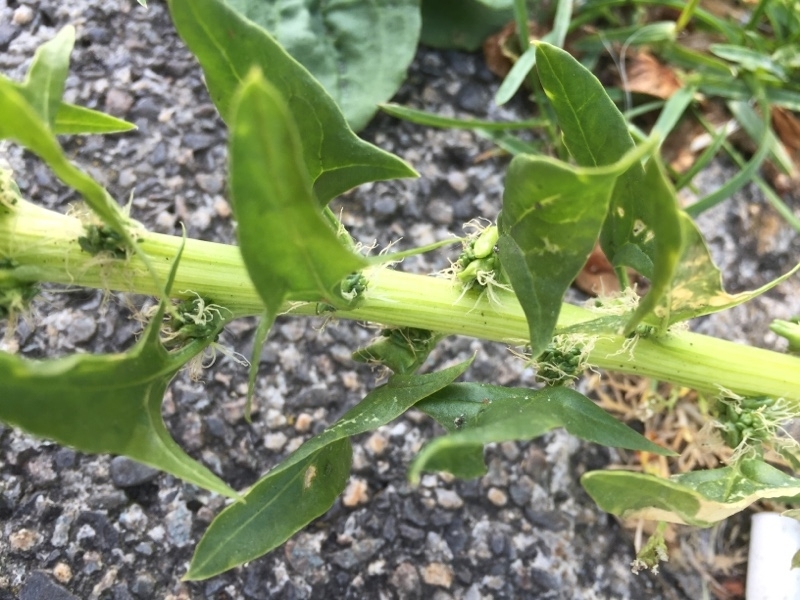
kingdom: Plantae
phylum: Tracheophyta
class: Magnoliopsida
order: Caryophyllales
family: Amaranthaceae
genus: Spinacia
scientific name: Spinacia oleracea
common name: Spinach
